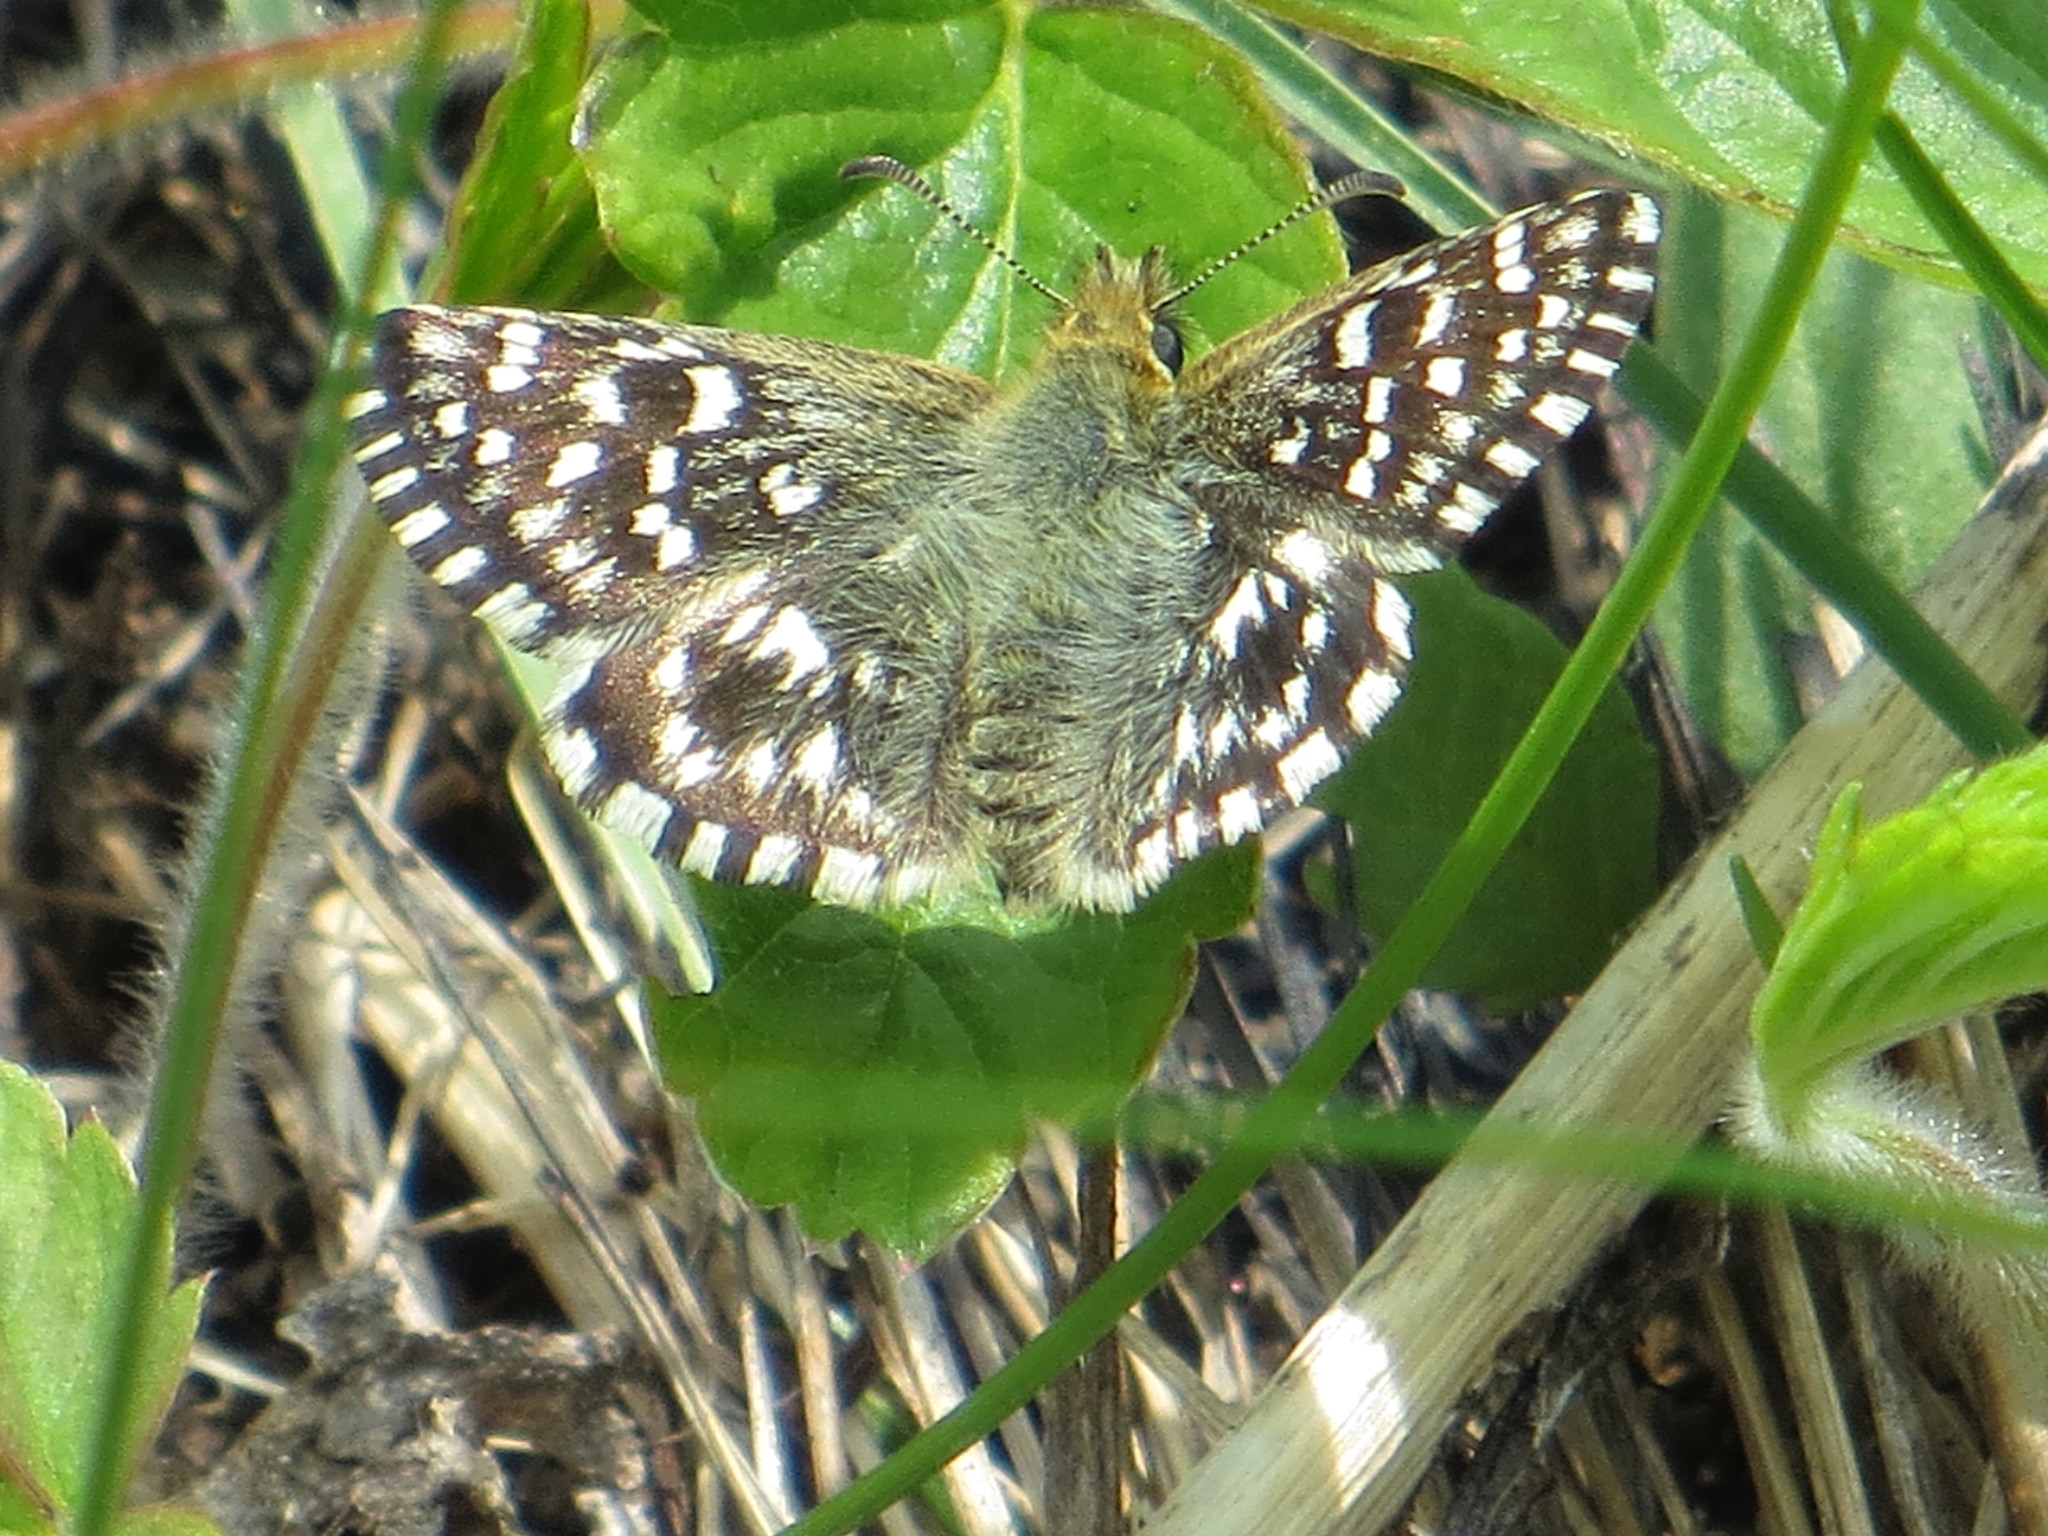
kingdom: Animalia
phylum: Arthropoda
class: Insecta
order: Lepidoptera
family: Hesperiidae
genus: Pyrgus
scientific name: Pyrgus malvae
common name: Grizzled skipper
